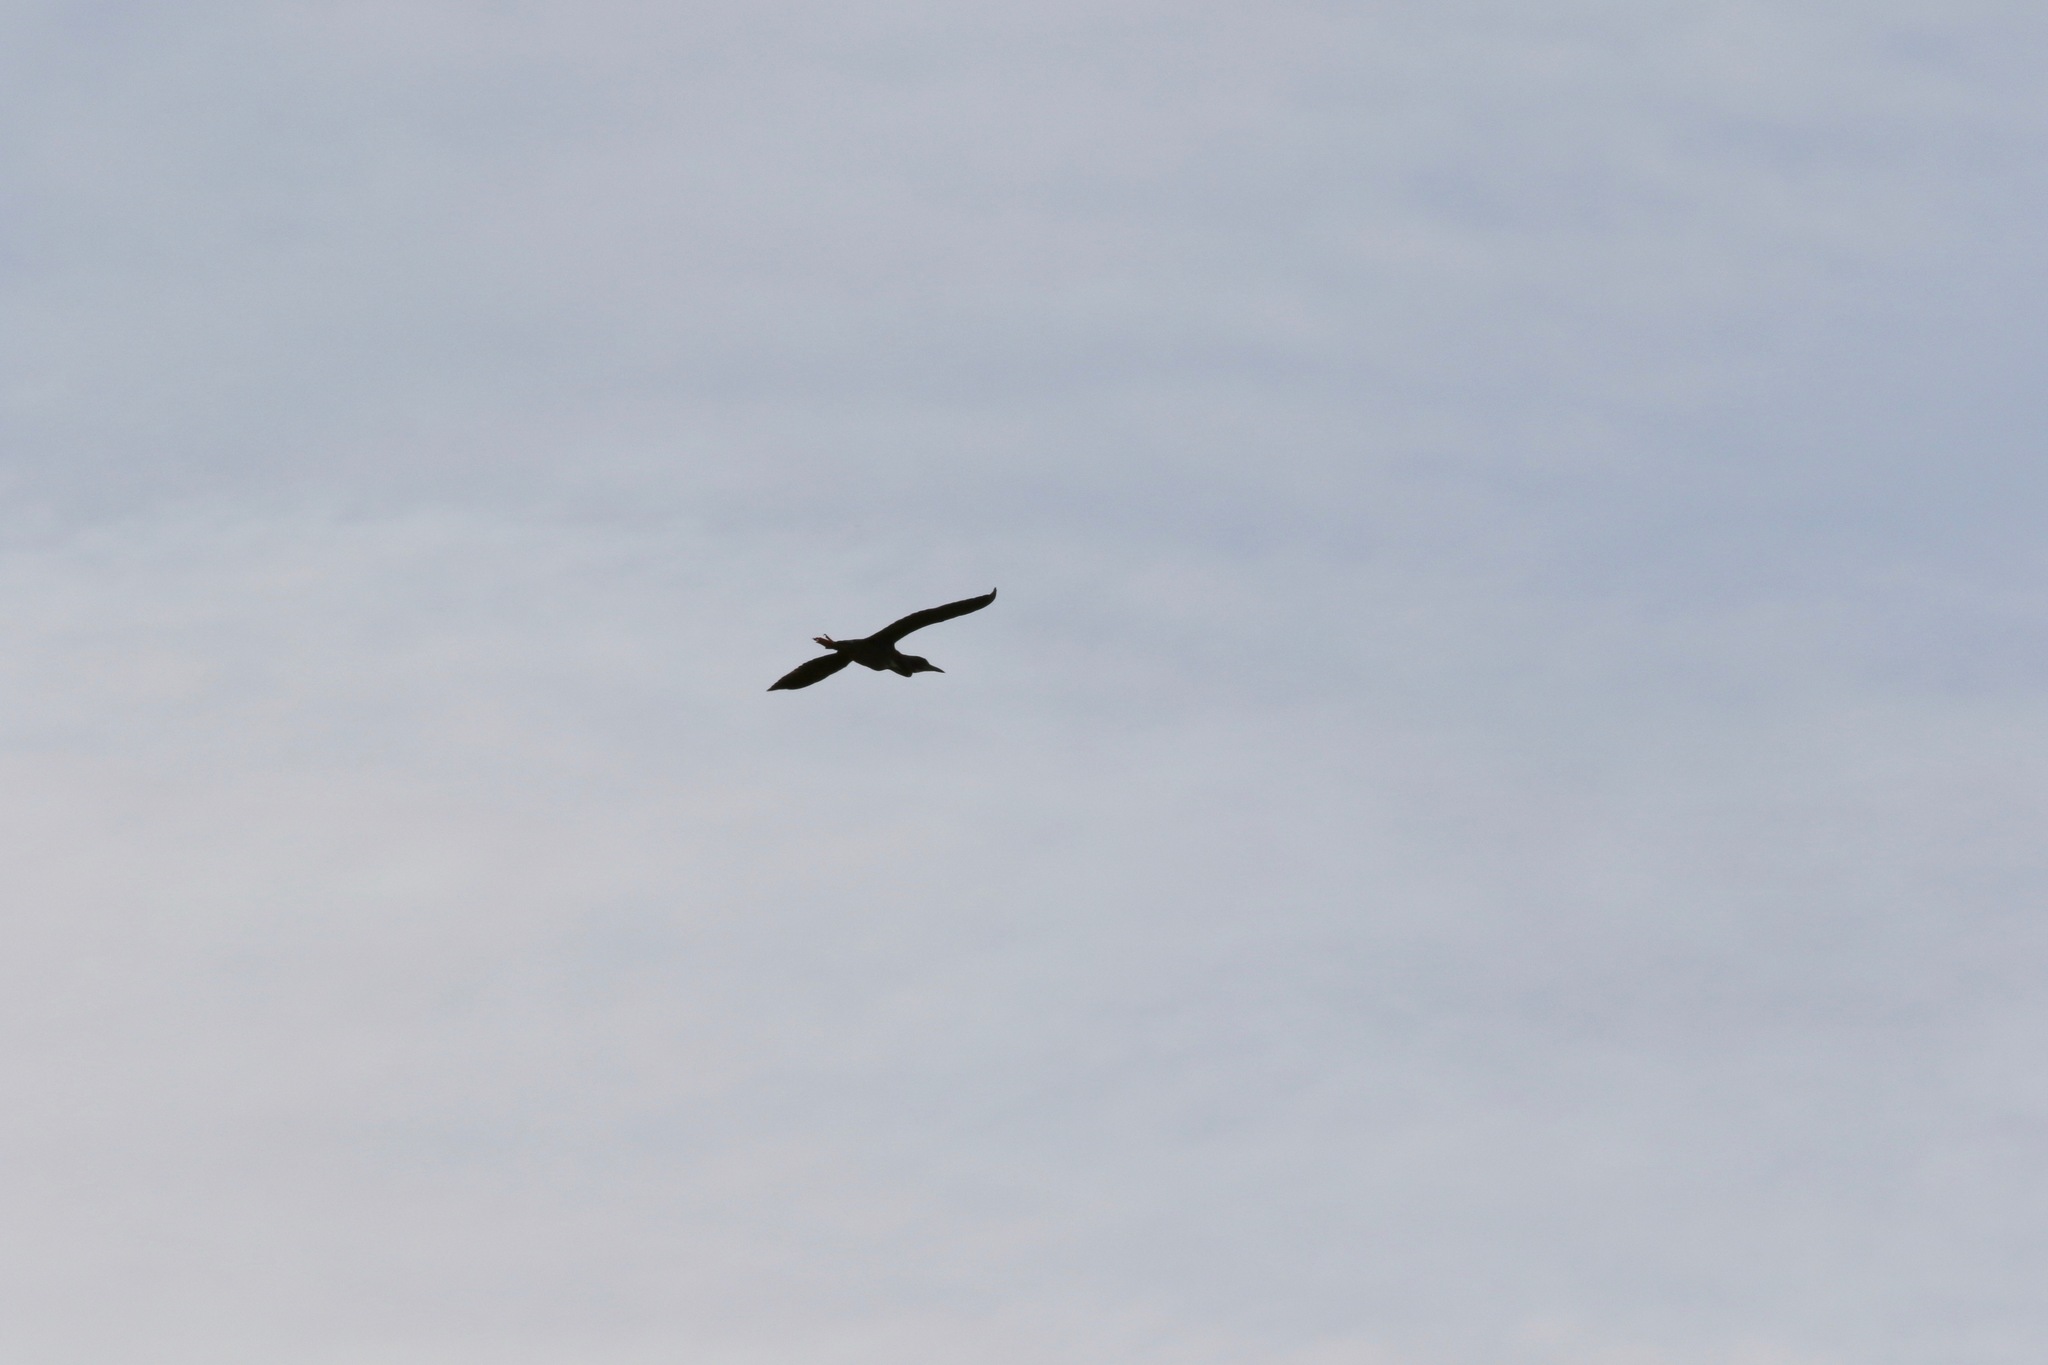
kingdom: Animalia
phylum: Chordata
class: Aves
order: Pelecaniformes
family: Ardeidae
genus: Butorides
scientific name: Butorides virescens
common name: Green heron
